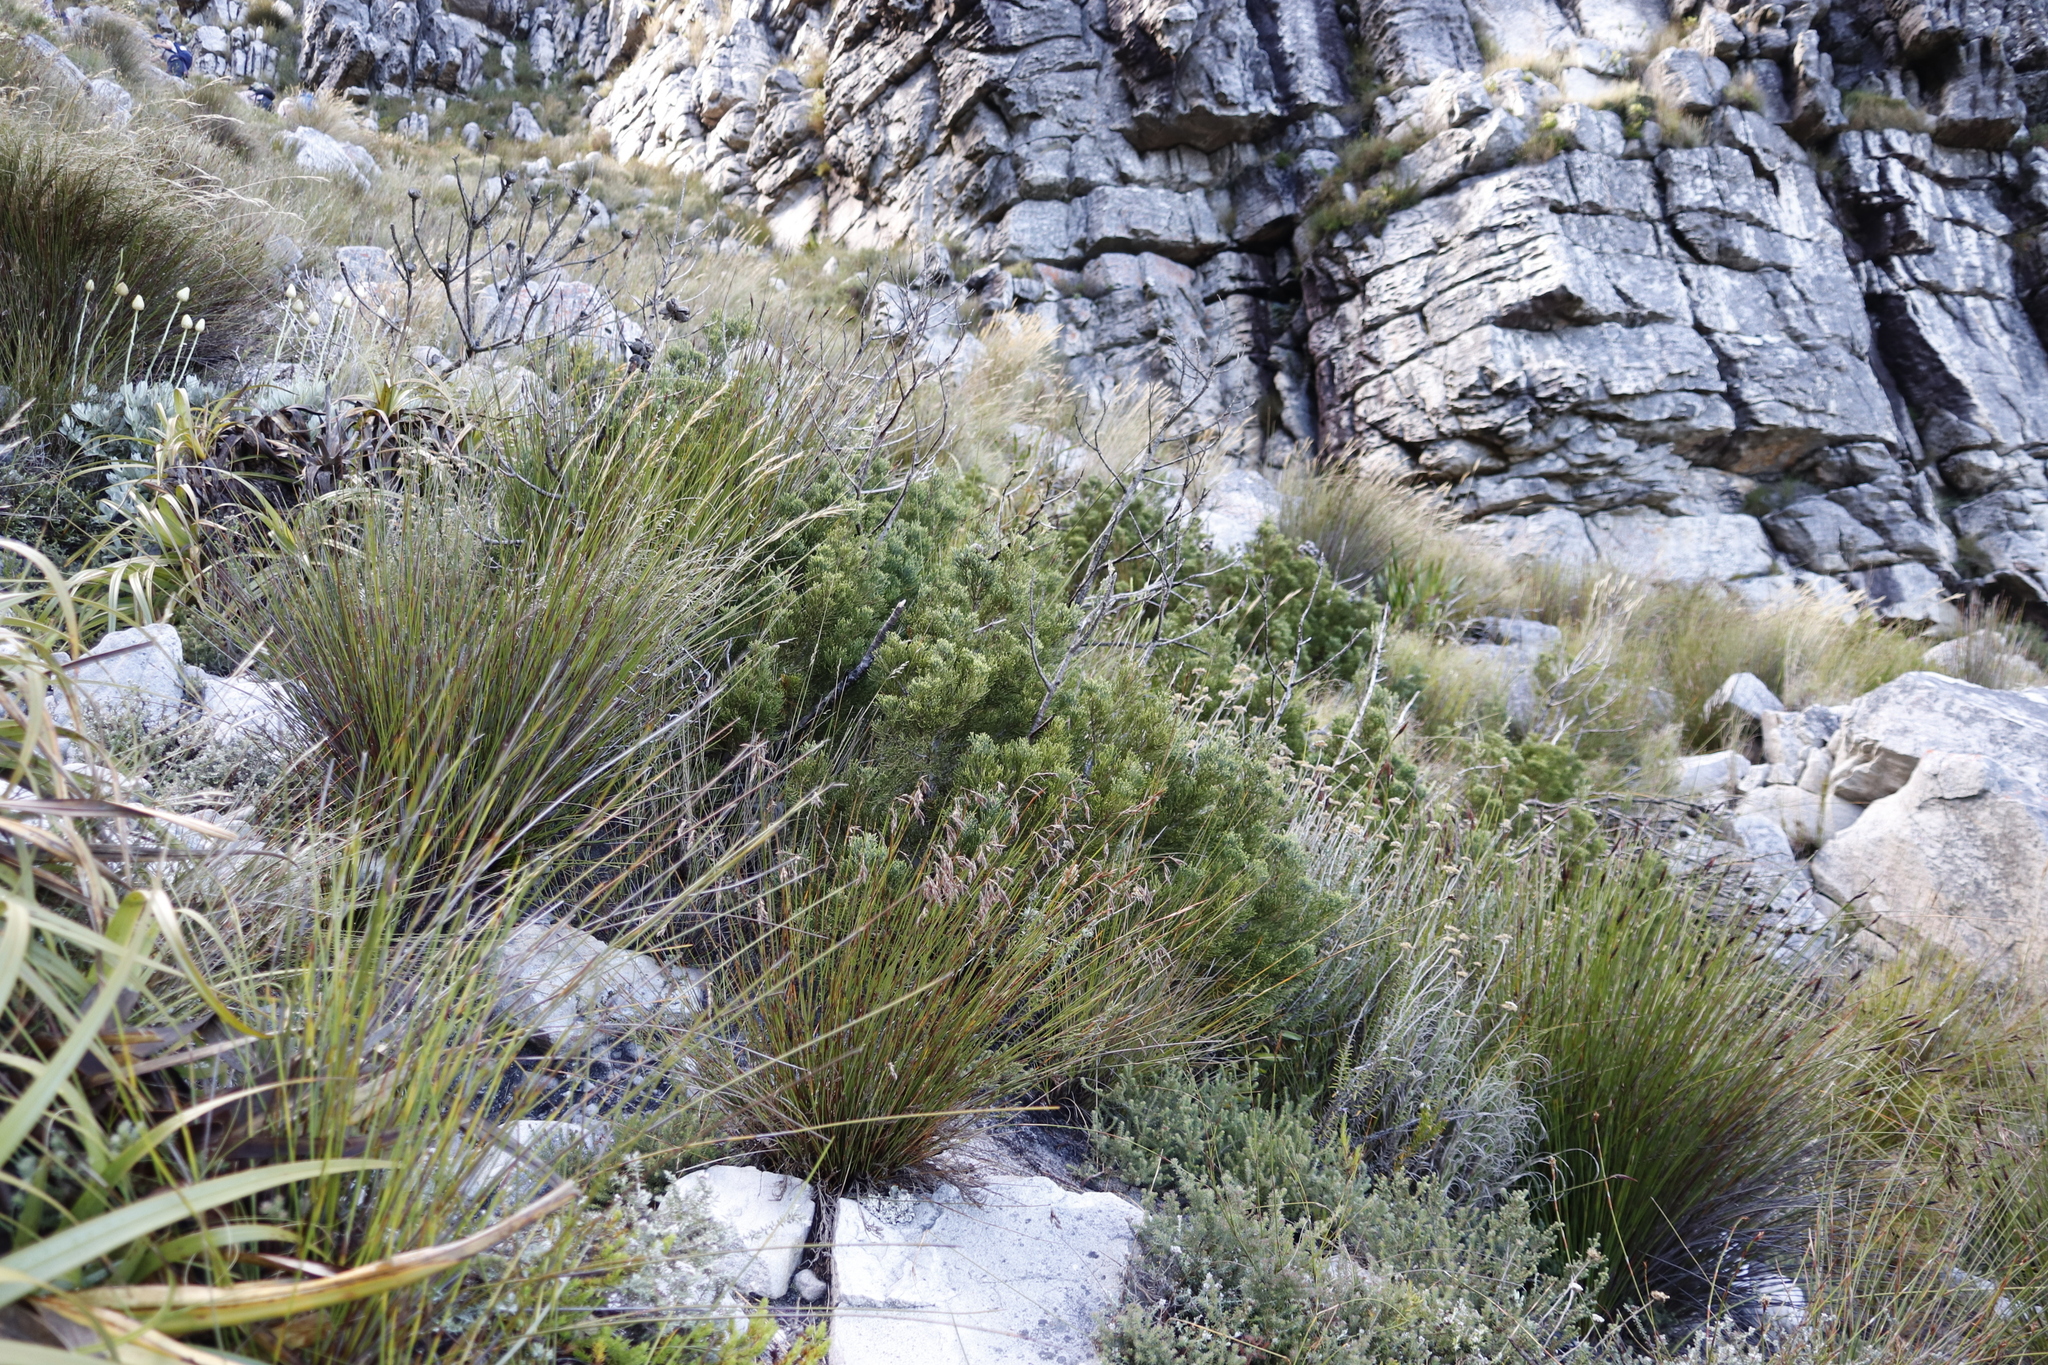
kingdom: Plantae
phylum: Tracheophyta
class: Pinopsida
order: Pinales
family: Cupressaceae
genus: Widdringtonia
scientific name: Widdringtonia nodiflora
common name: Cape cypress
